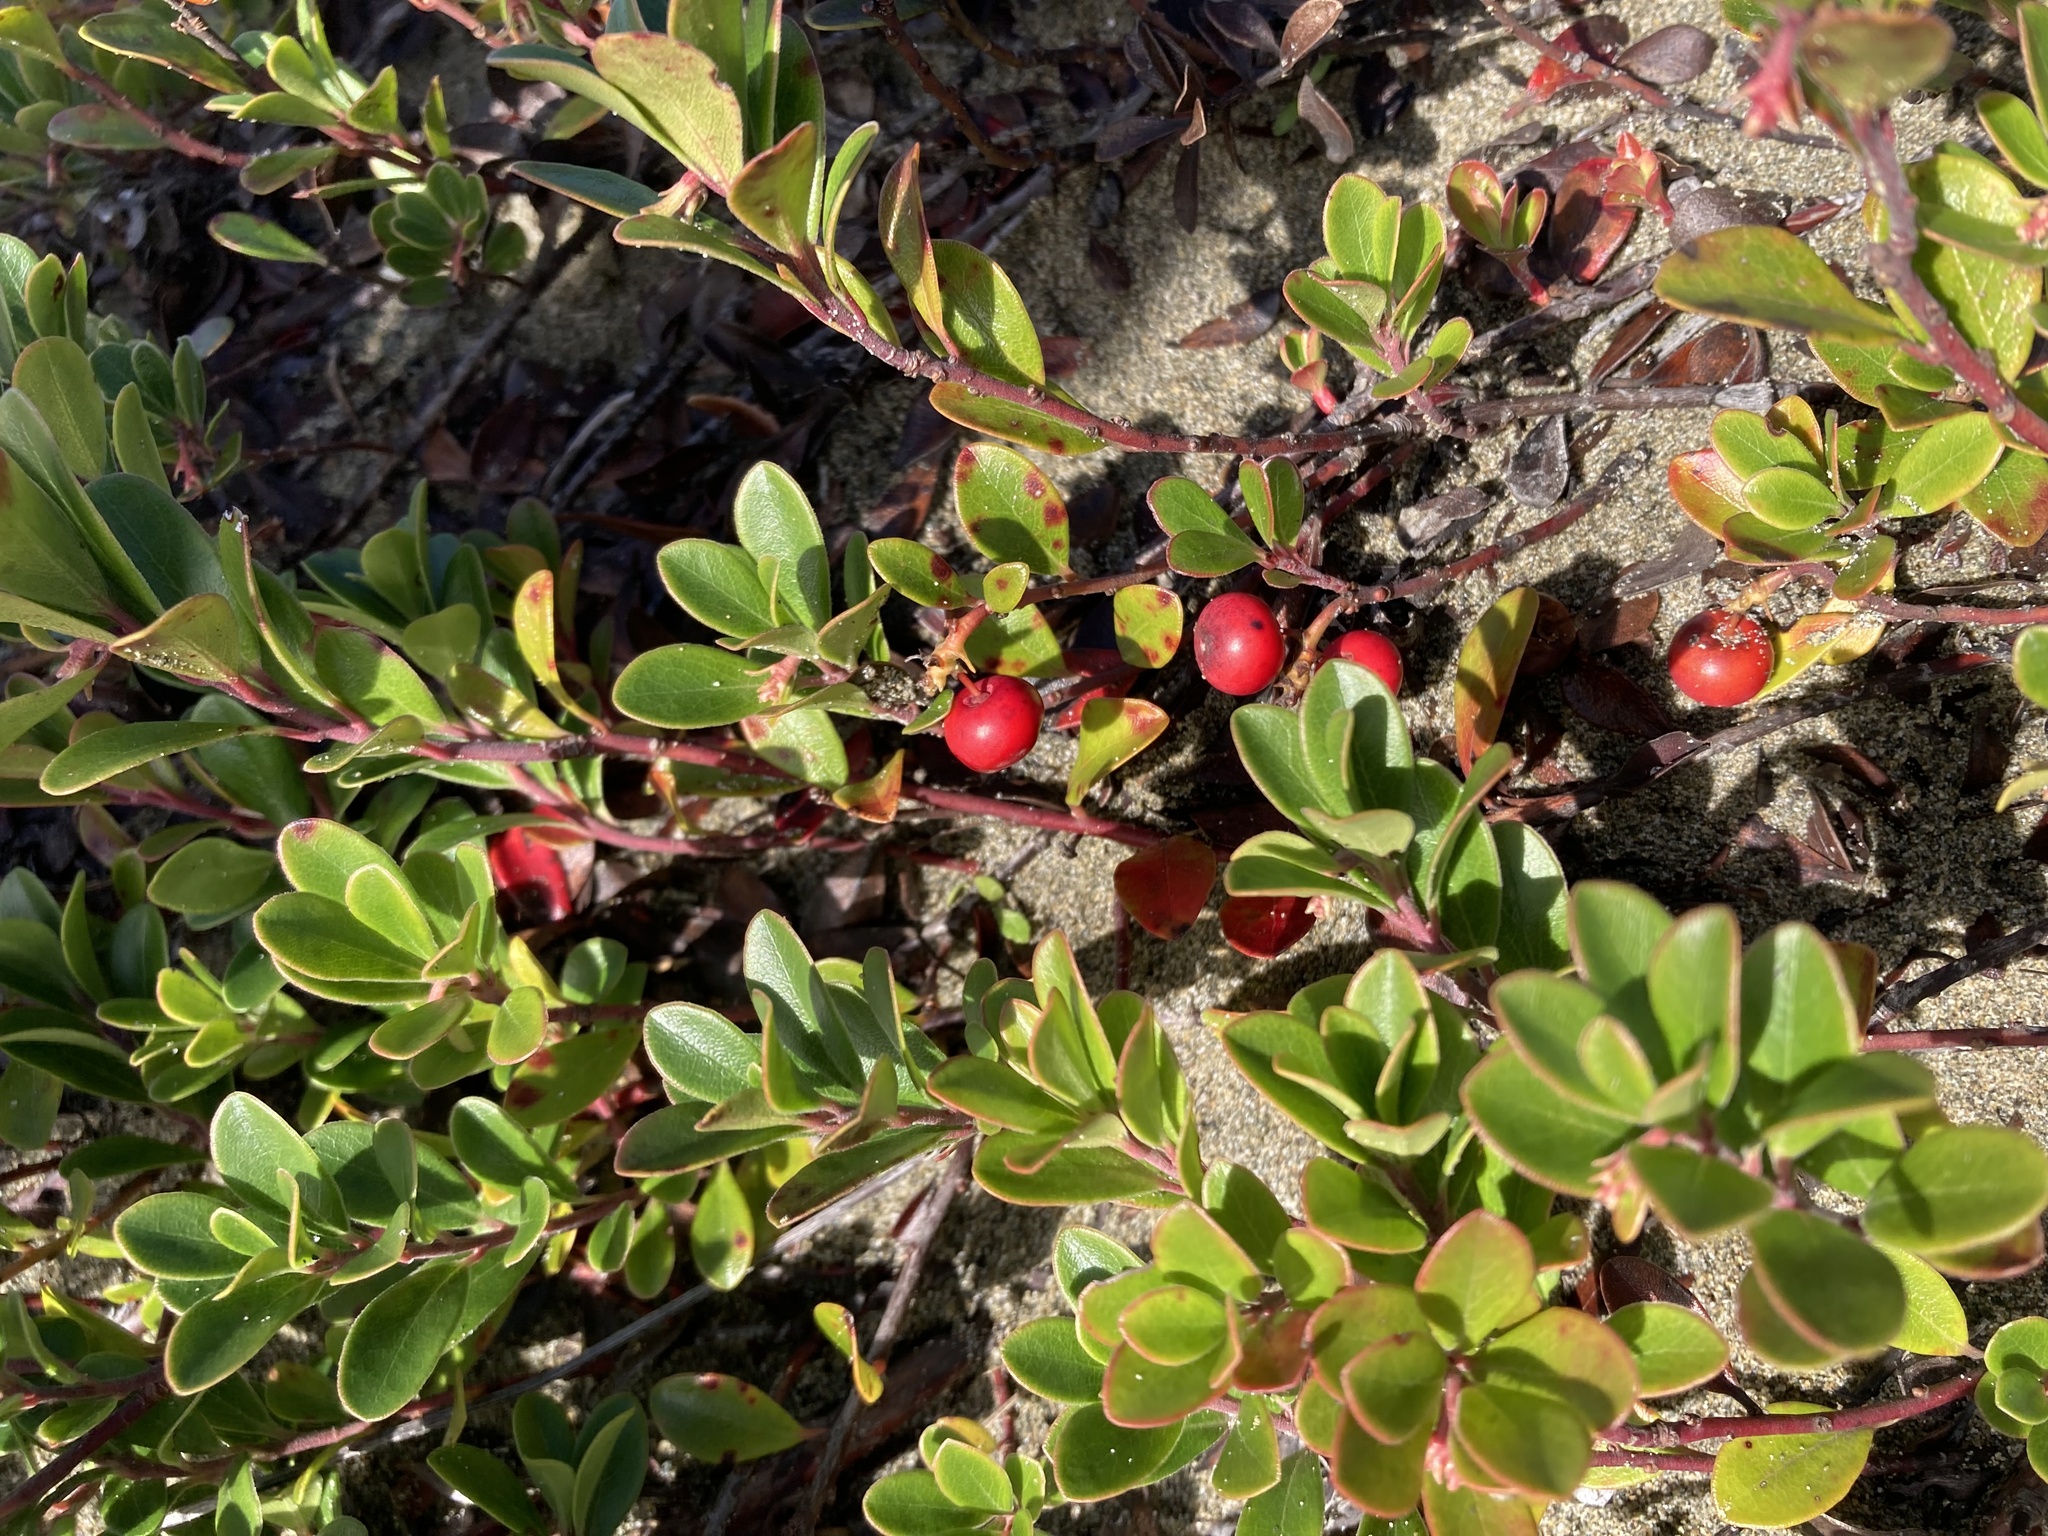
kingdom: Plantae
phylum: Tracheophyta
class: Magnoliopsida
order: Ericales
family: Ericaceae
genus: Arctostaphylos
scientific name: Arctostaphylos uva-ursi
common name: Bearberry
